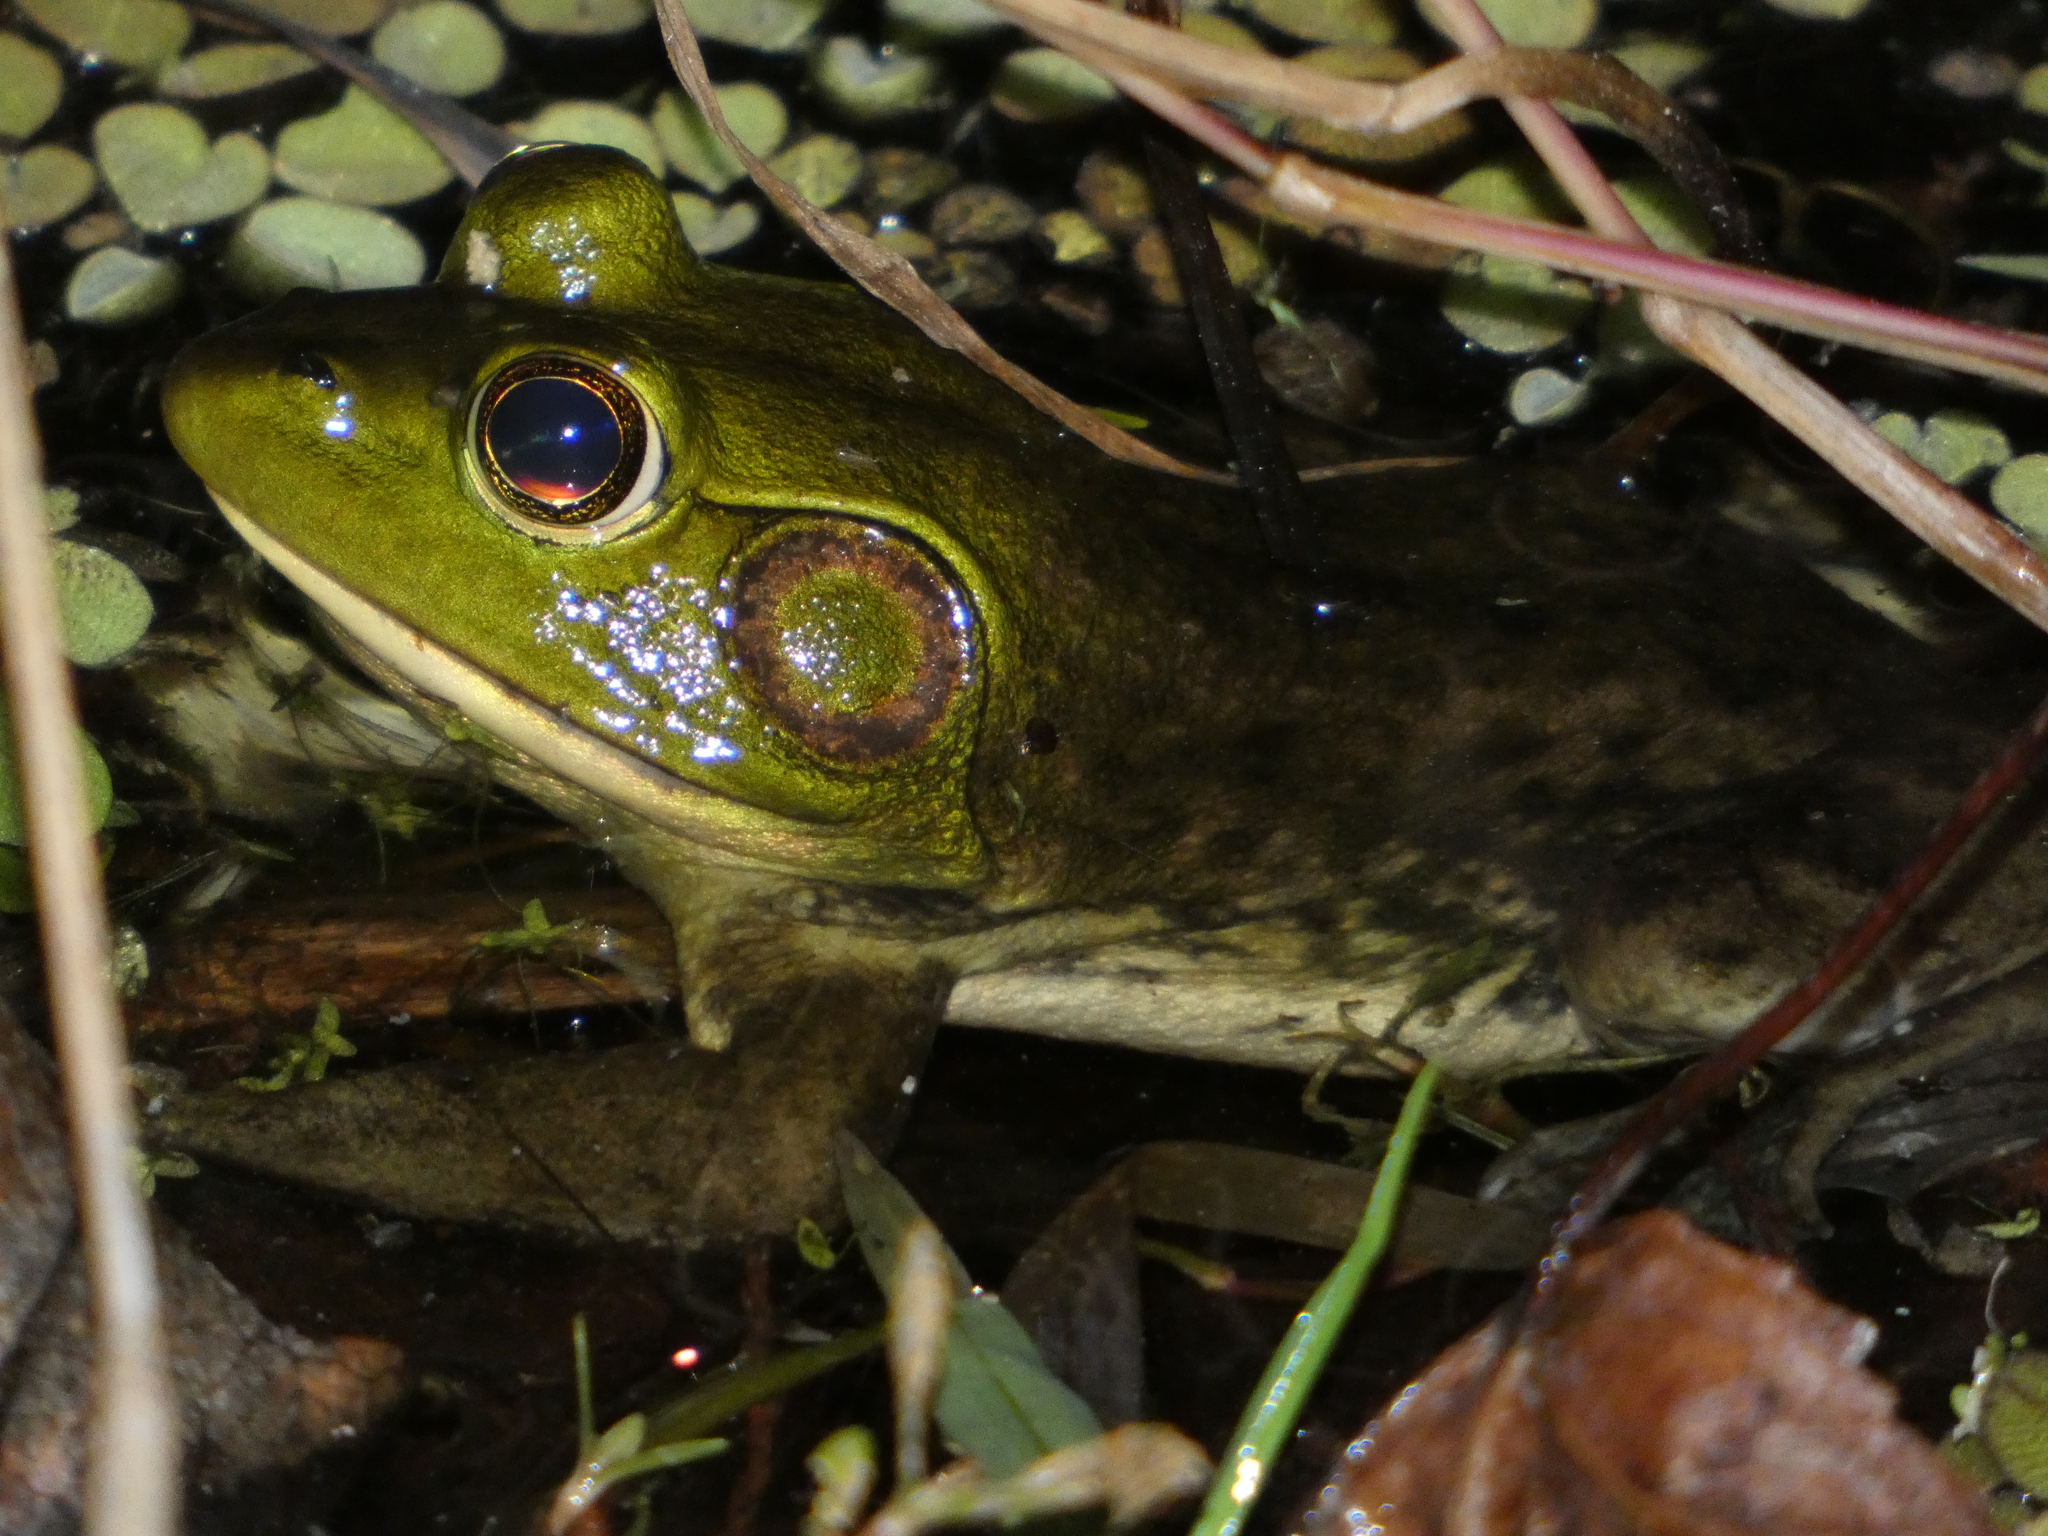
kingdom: Animalia
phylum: Chordata
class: Amphibia
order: Anura
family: Ranidae
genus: Lithobates
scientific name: Lithobates grylio
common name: Pig frog
